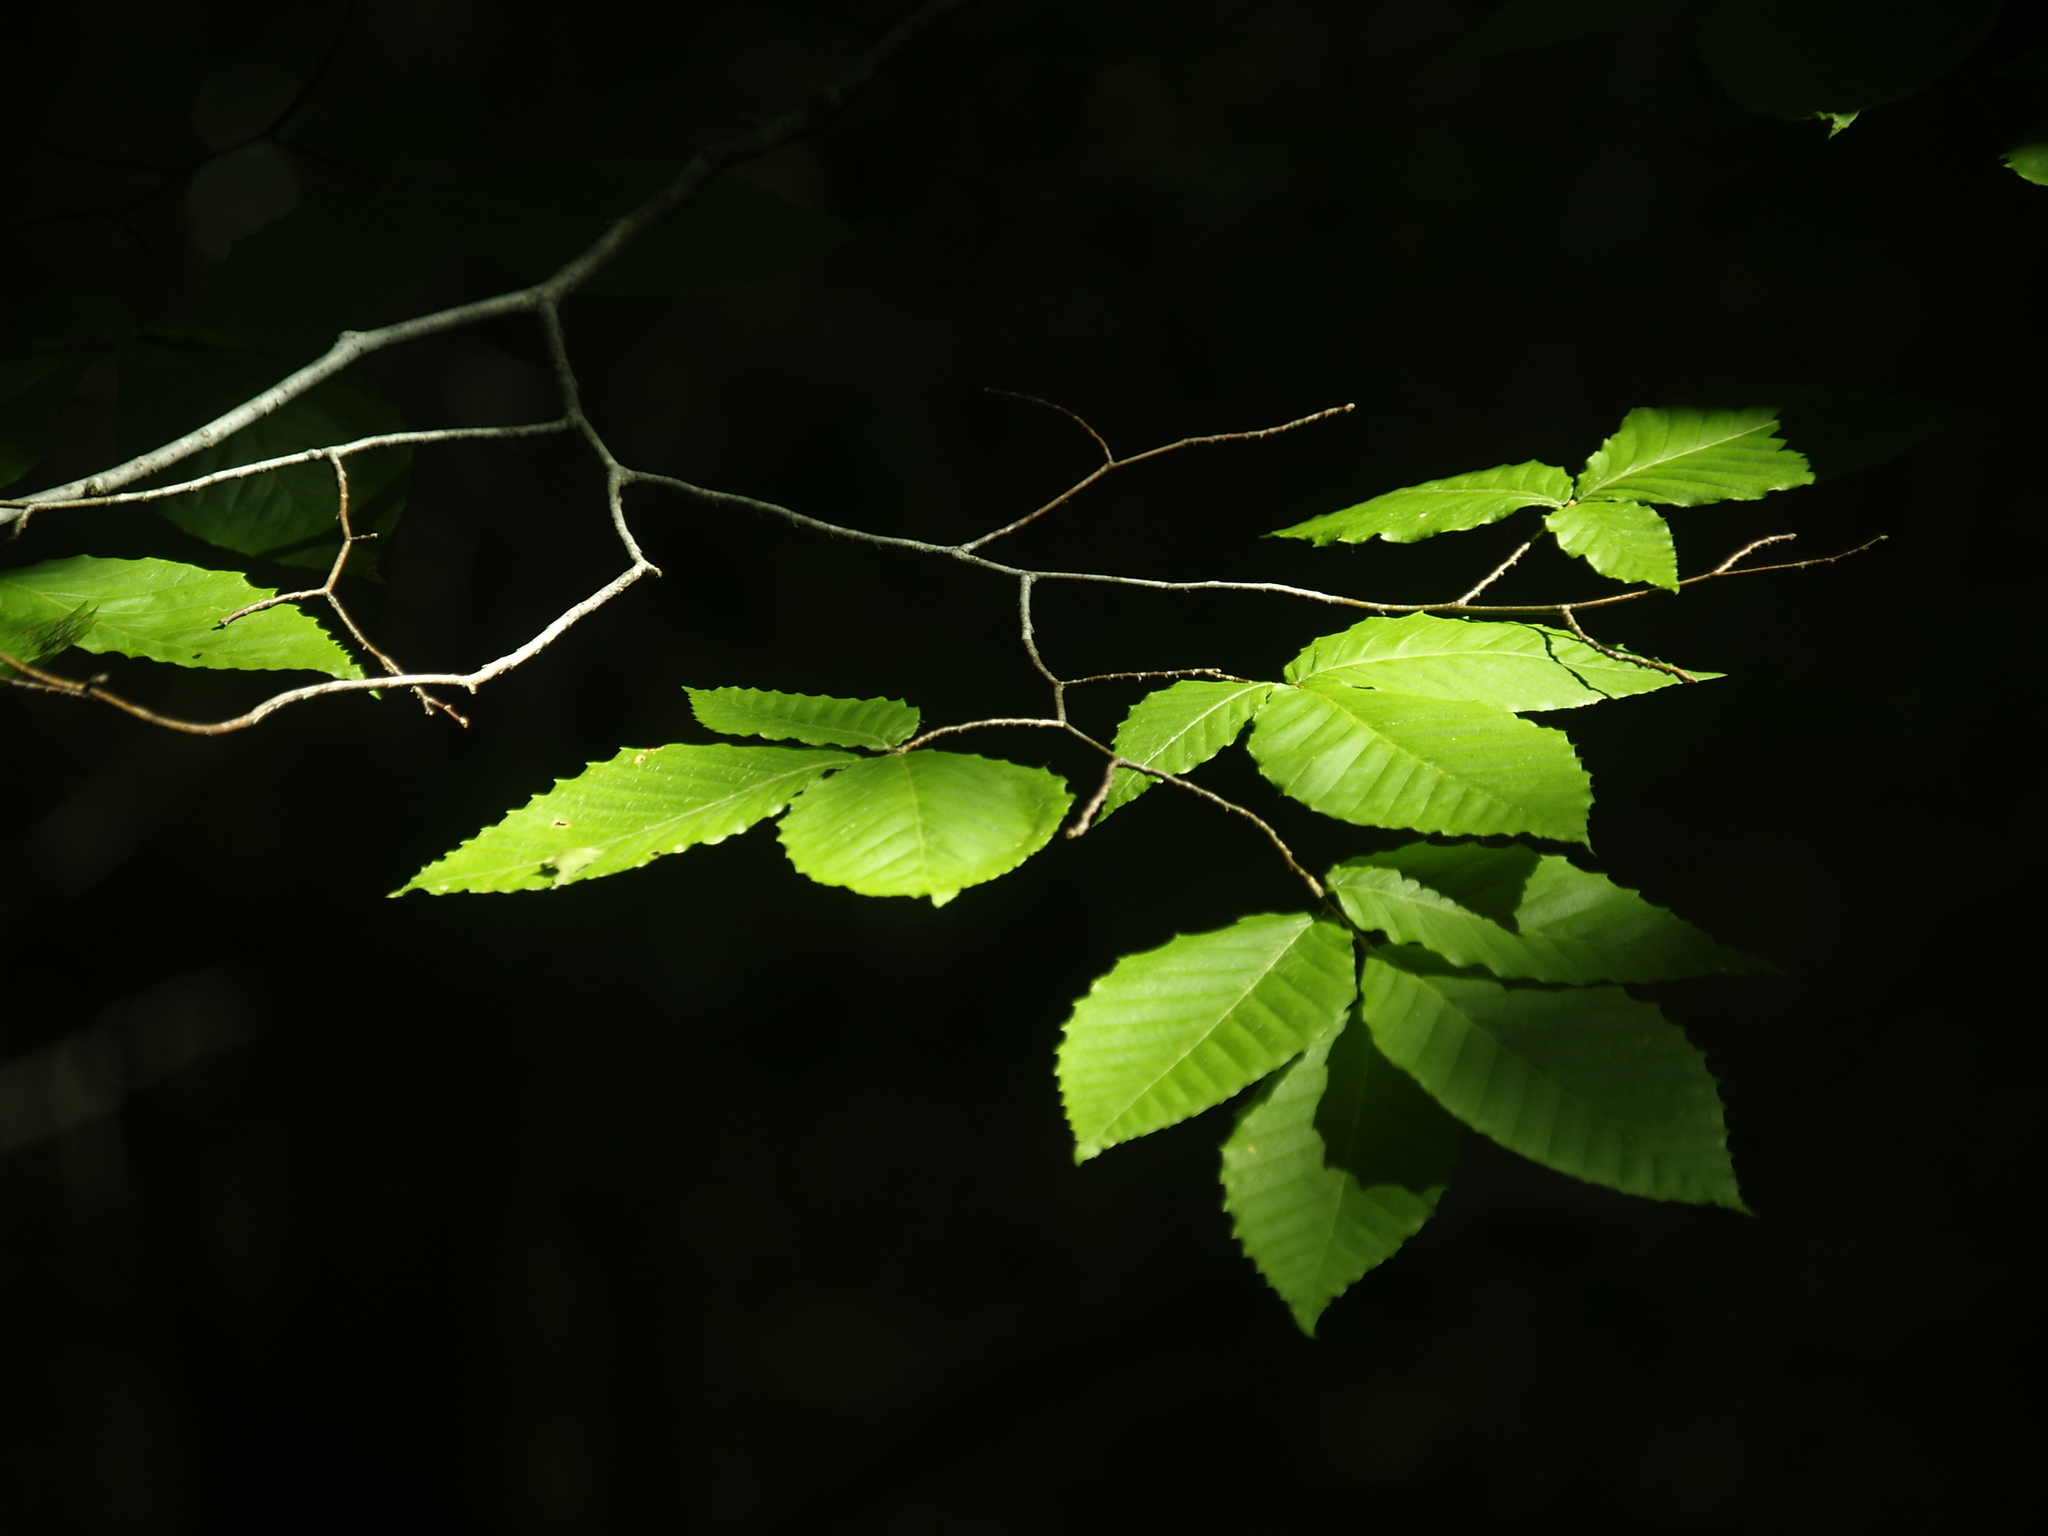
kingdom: Plantae
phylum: Tracheophyta
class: Magnoliopsida
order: Fagales
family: Fagaceae
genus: Fagus
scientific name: Fagus grandifolia
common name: American beech
